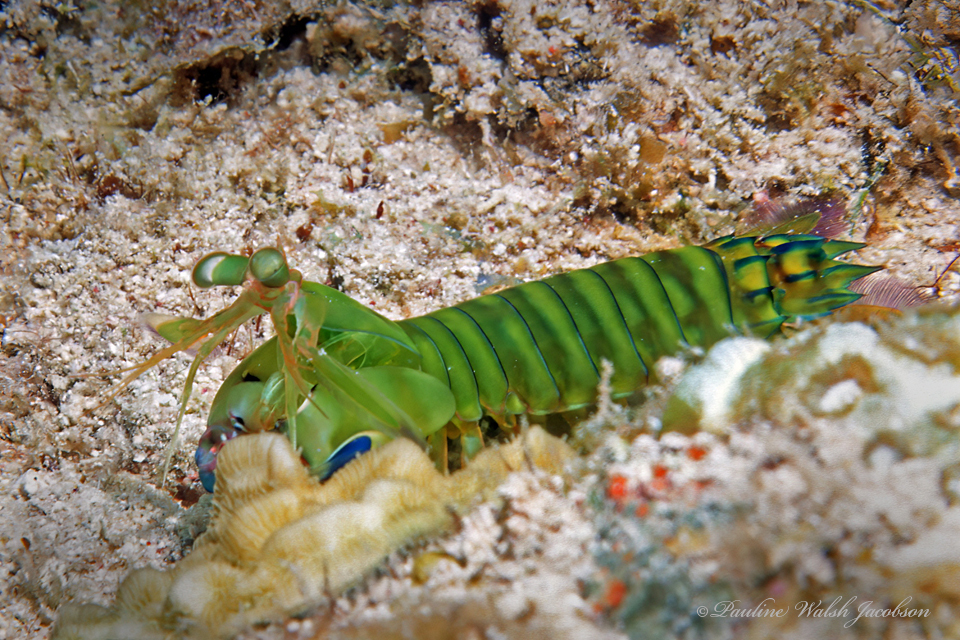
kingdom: Animalia
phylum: Arthropoda
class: Malacostraca
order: Stomatopoda
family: Gonodactylidae
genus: Neogonodactylus
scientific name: Neogonodactylus curacaoensis
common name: Dark mantis
